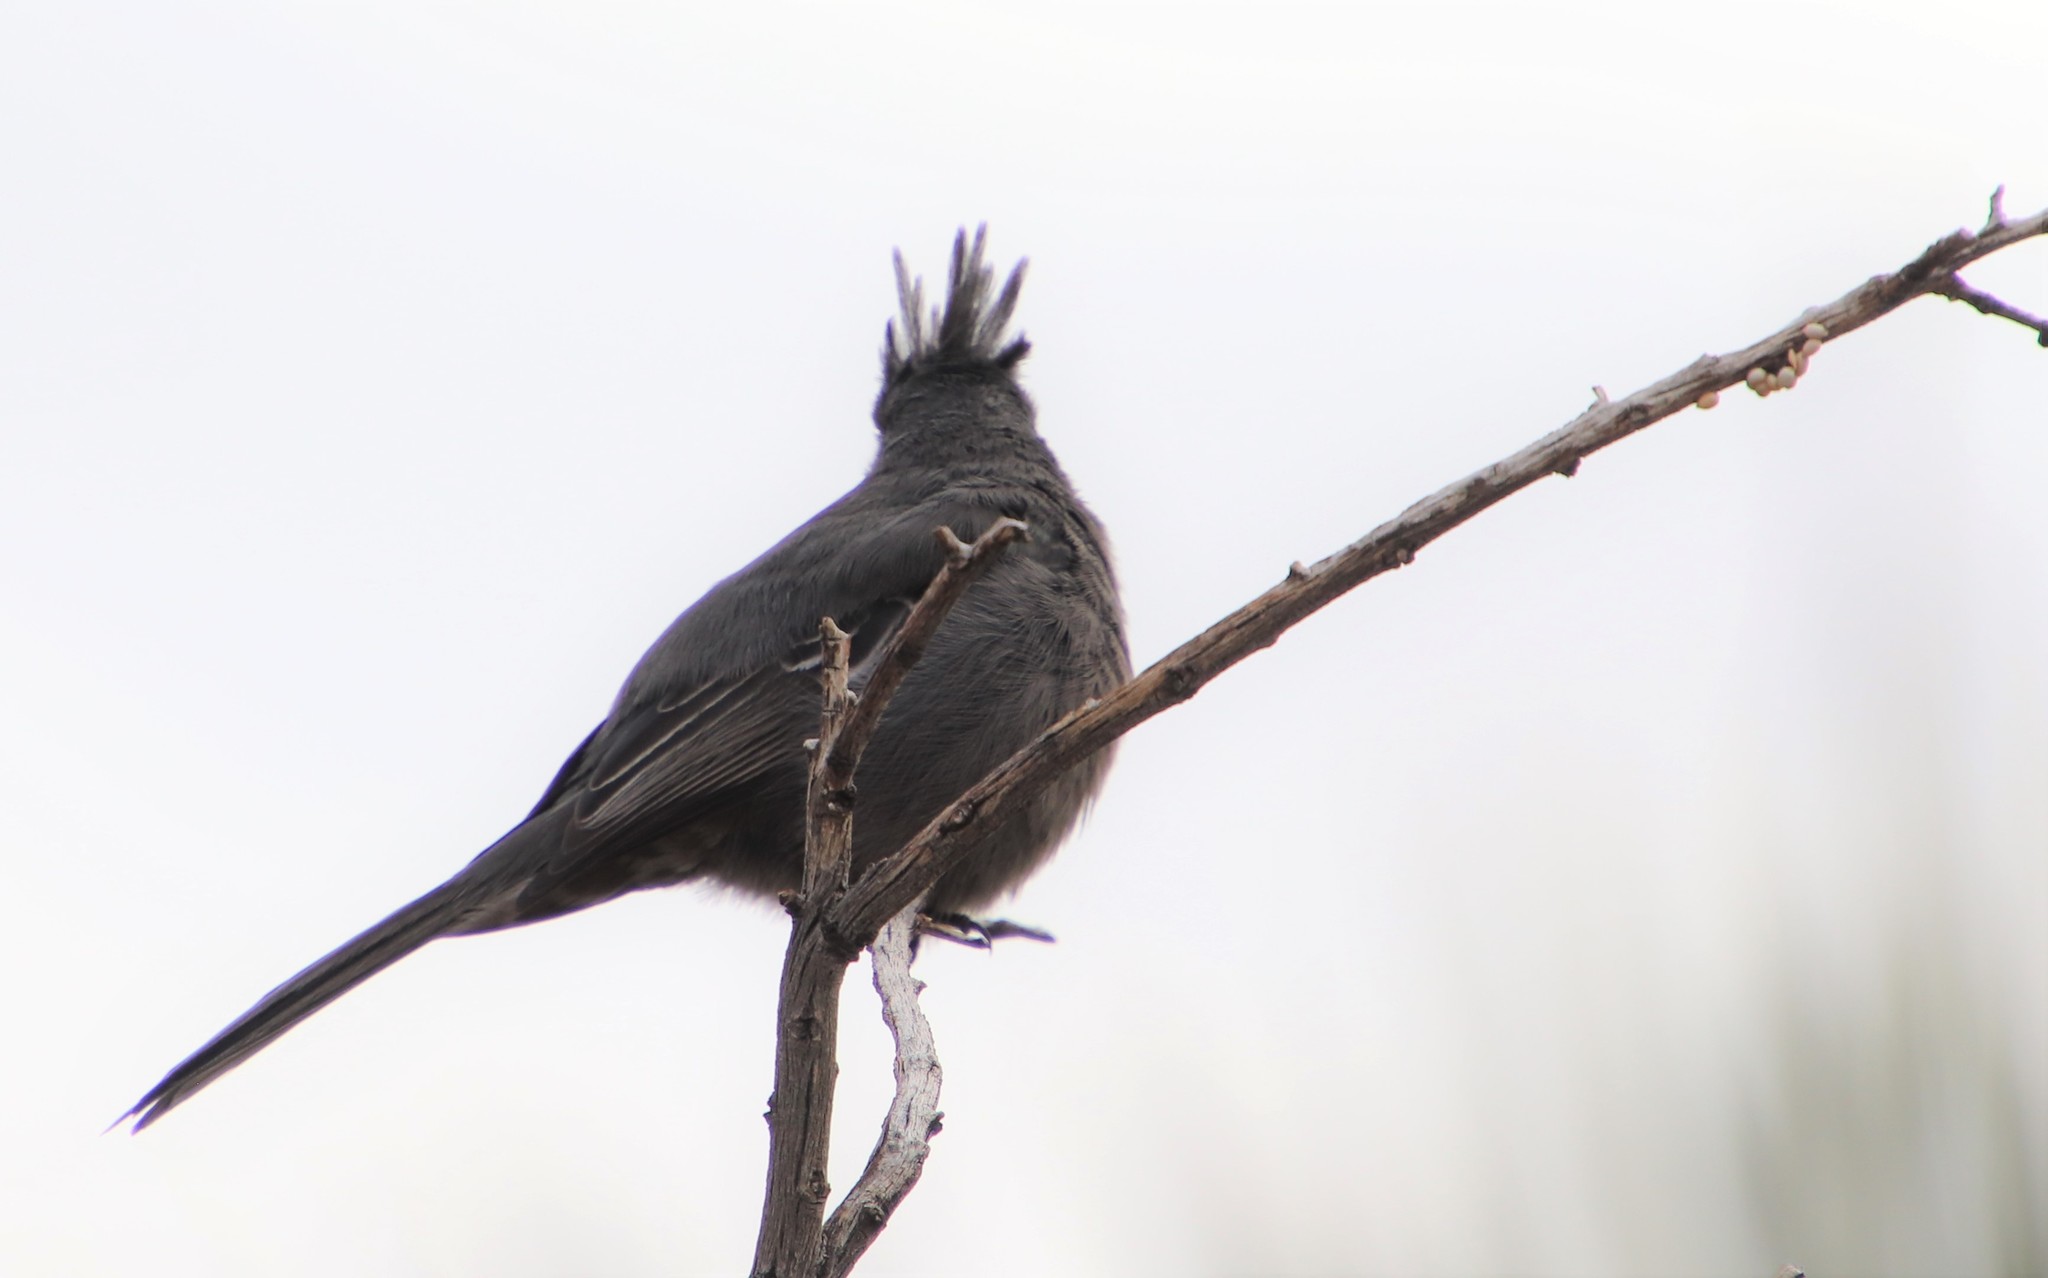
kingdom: Animalia
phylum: Chordata
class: Aves
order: Passeriformes
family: Ptilogonatidae
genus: Phainopepla
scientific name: Phainopepla nitens
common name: Phainopepla
